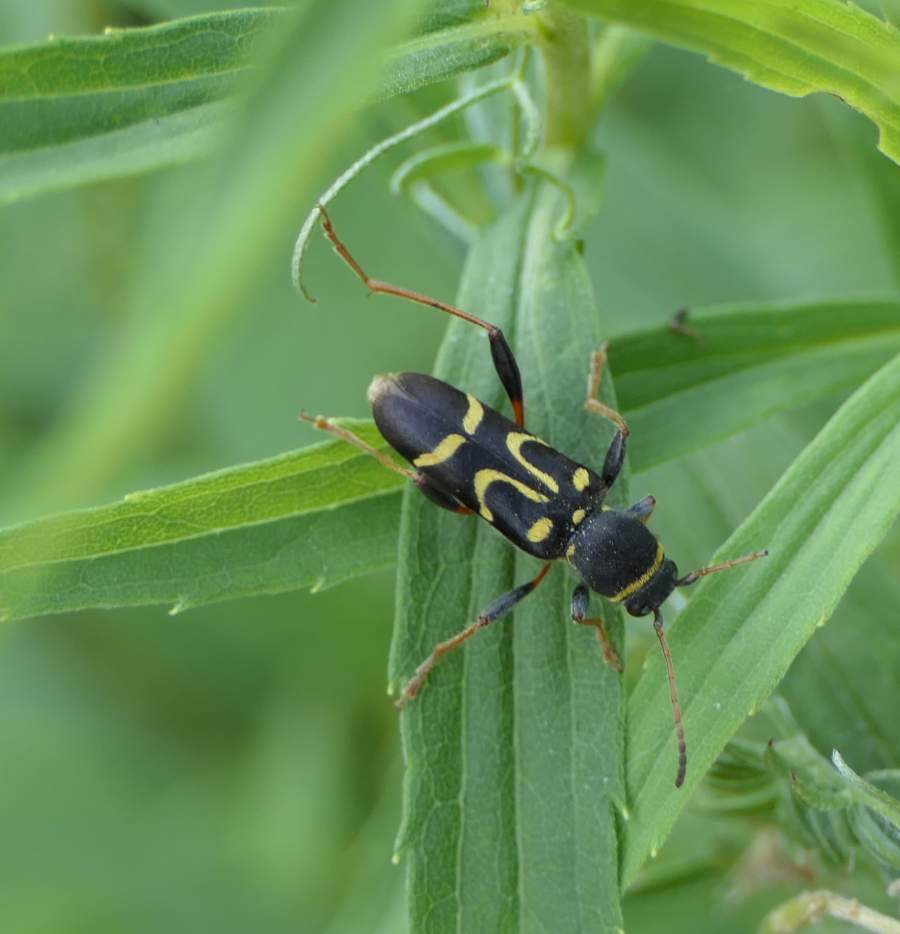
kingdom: Animalia
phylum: Arthropoda
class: Insecta
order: Coleoptera
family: Cerambycidae
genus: Clytus
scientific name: Clytus ruricola
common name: Round-necked longhorn beetle
